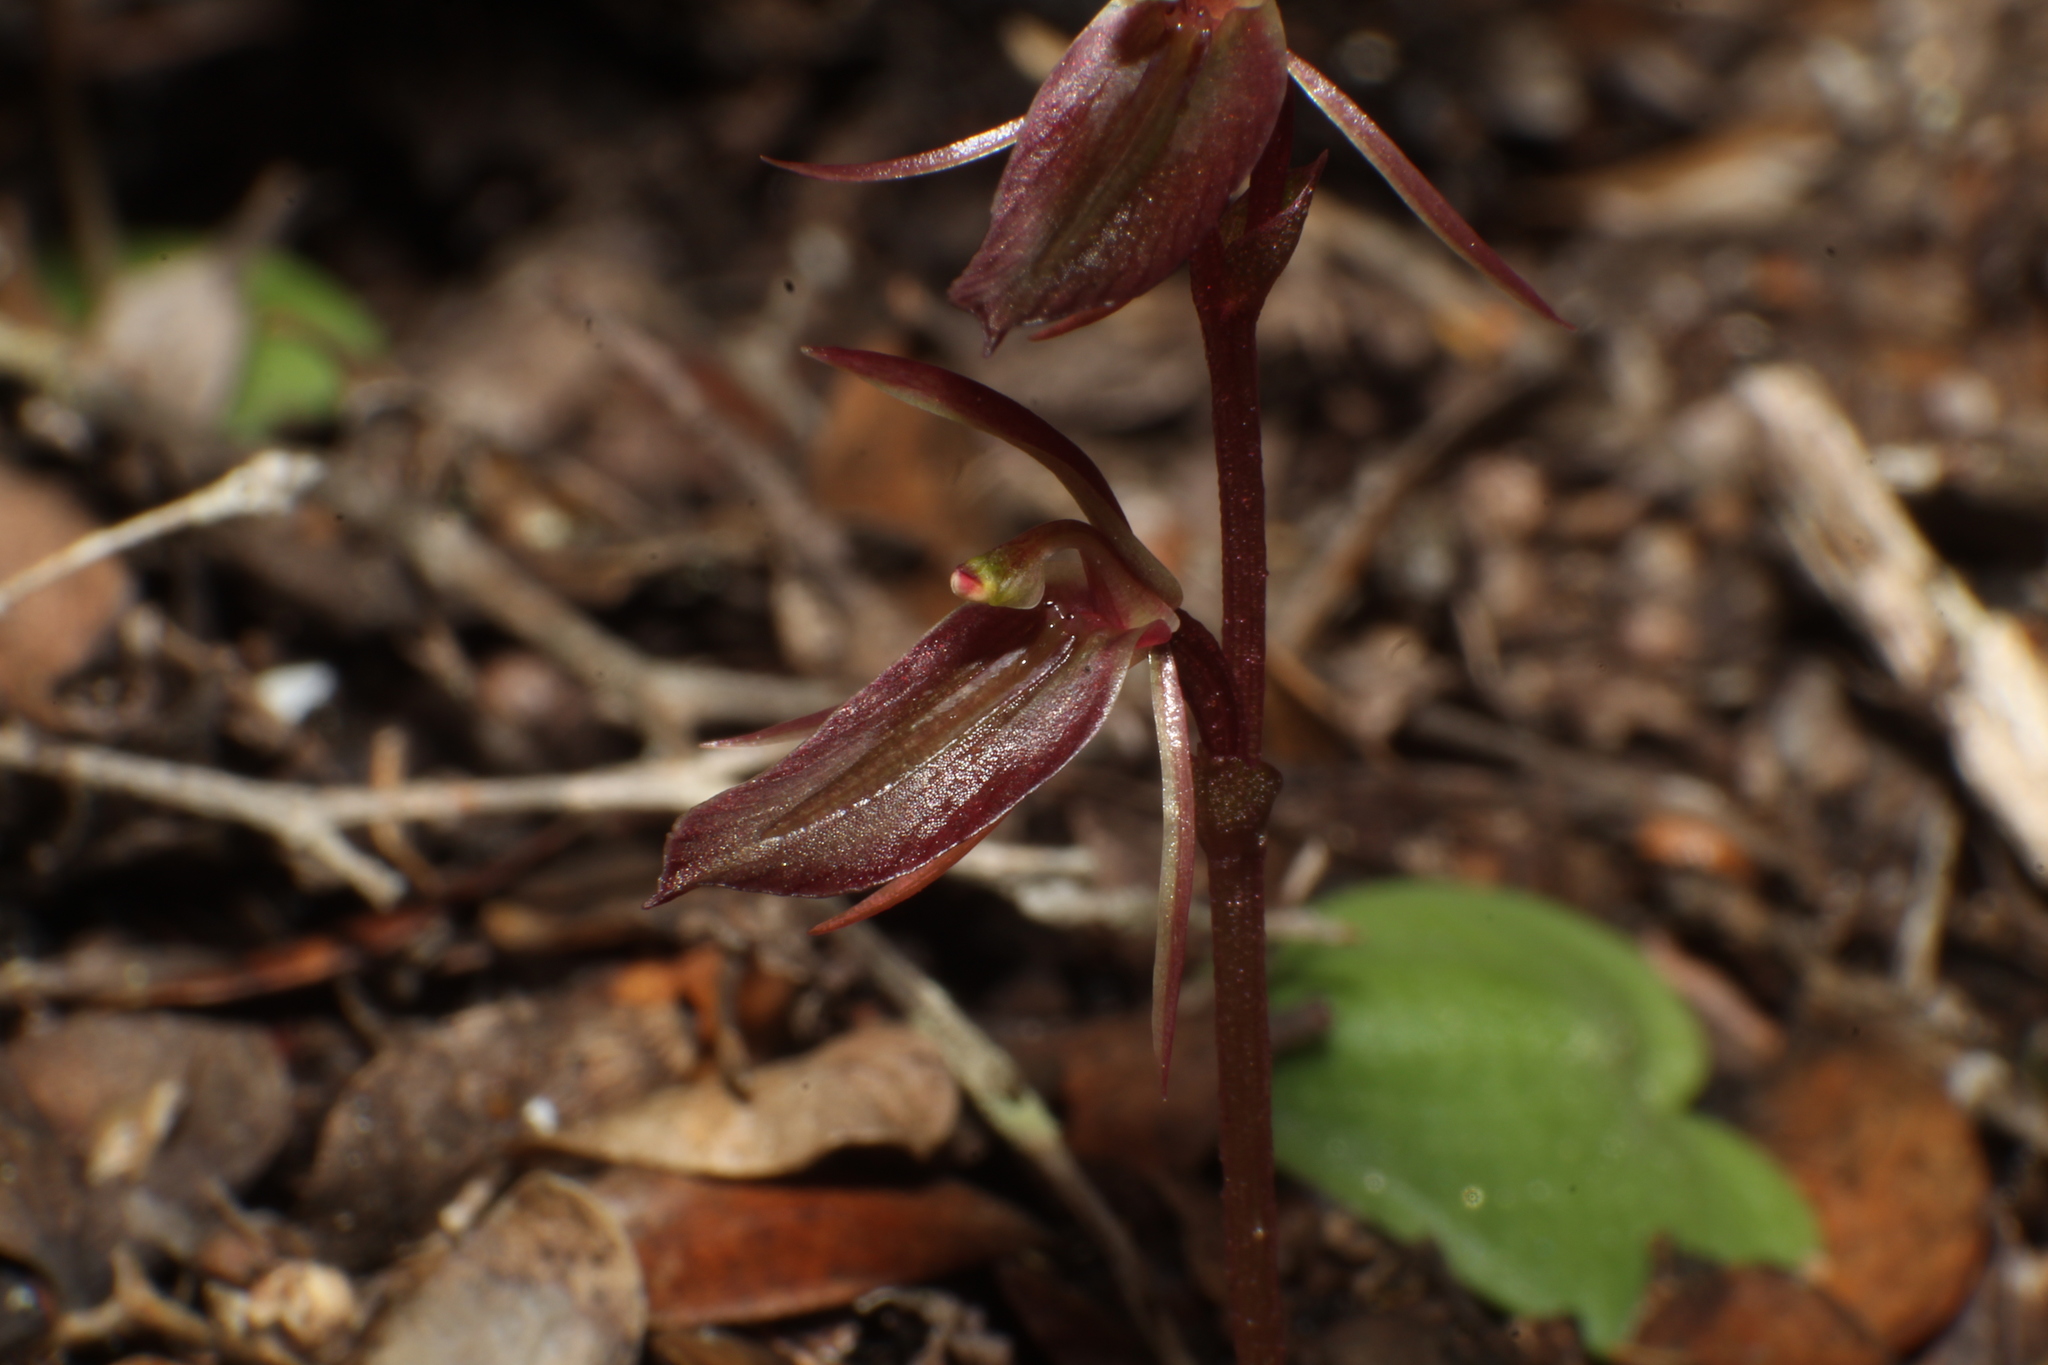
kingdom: Plantae
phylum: Tracheophyta
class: Liliopsida
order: Asparagales
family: Orchidaceae
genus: Cyrtostylis
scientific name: Cyrtostylis robusta
